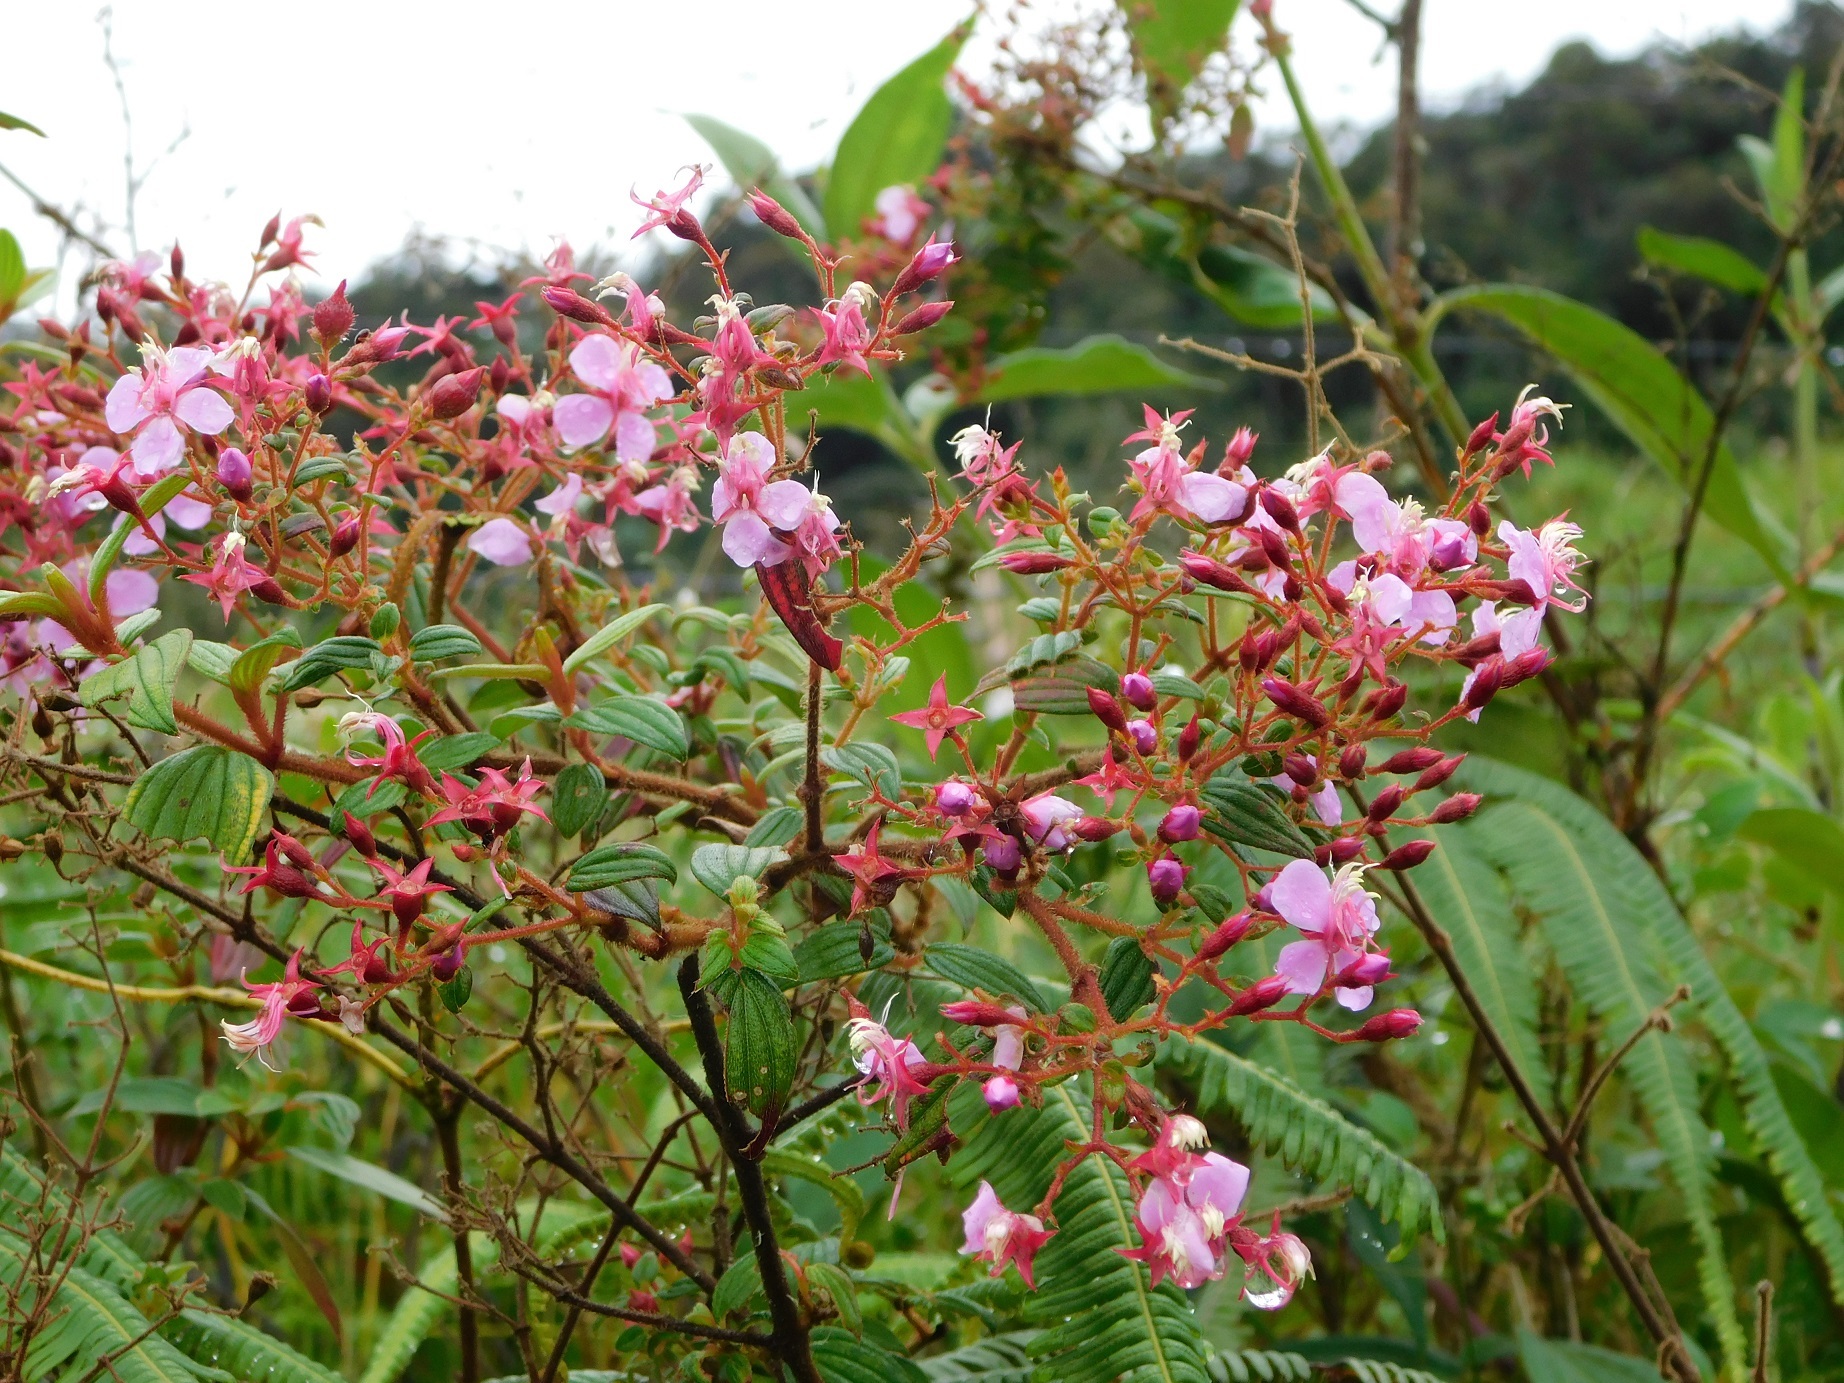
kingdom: Plantae
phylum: Tracheophyta
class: Magnoliopsida
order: Myrtales
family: Melastomataceae
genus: Monochaetum
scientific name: Monochaetum multiflorum
